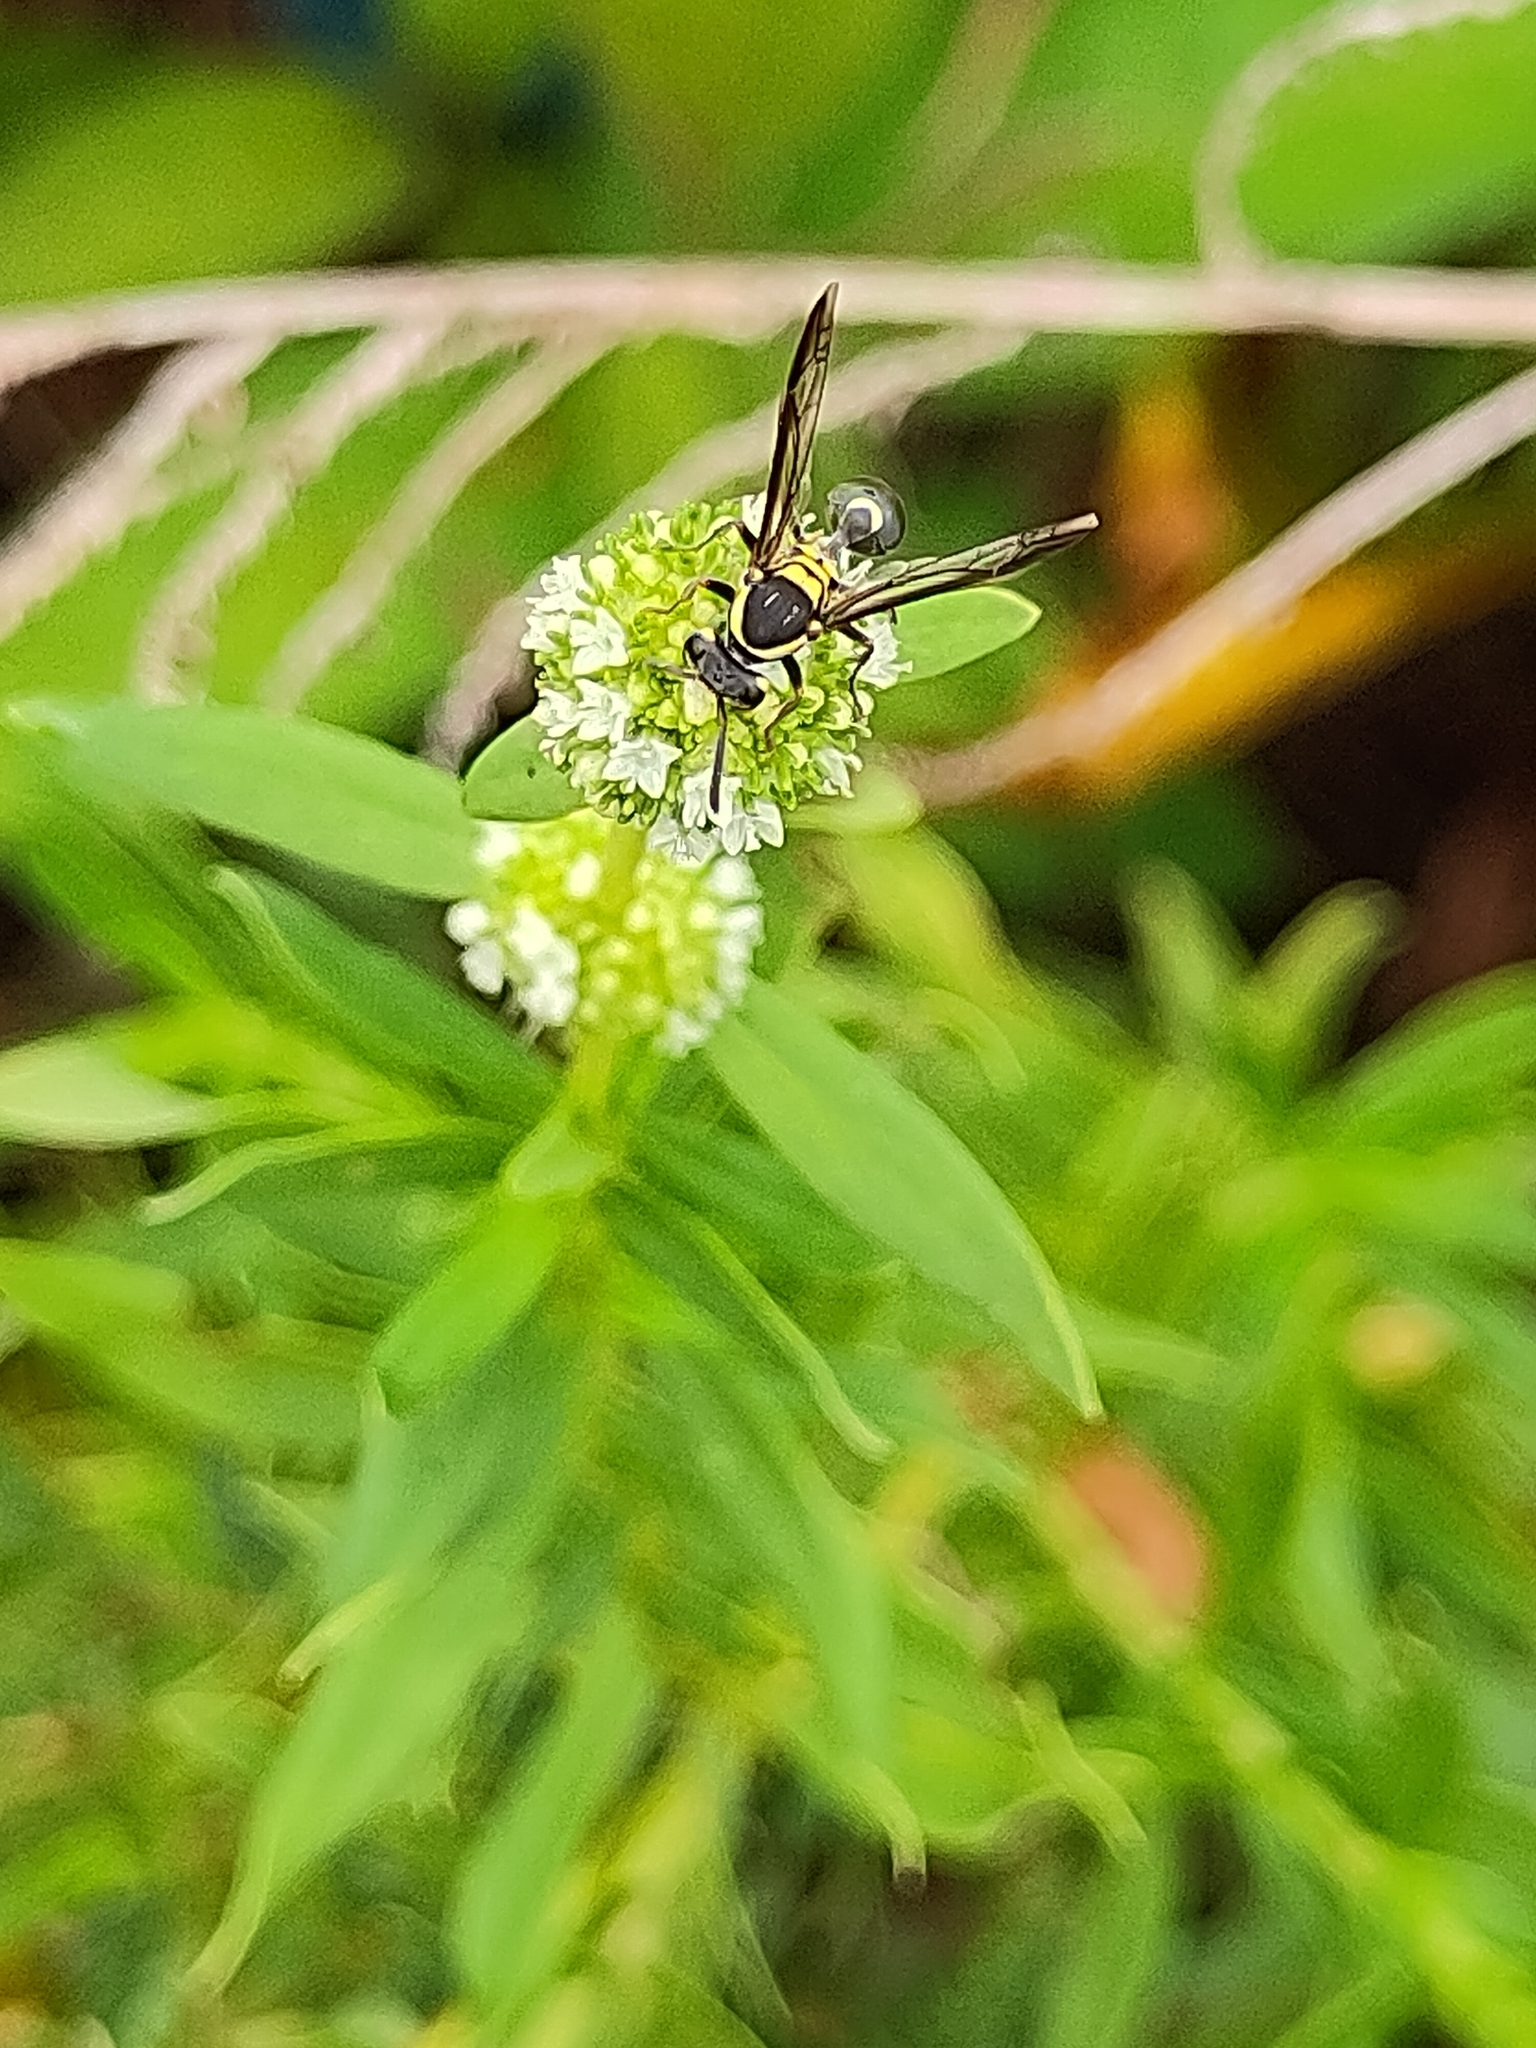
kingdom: Animalia
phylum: Arthropoda
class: Insecta
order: Hymenoptera
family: Vespidae
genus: Myrapetra
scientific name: Myrapetra
